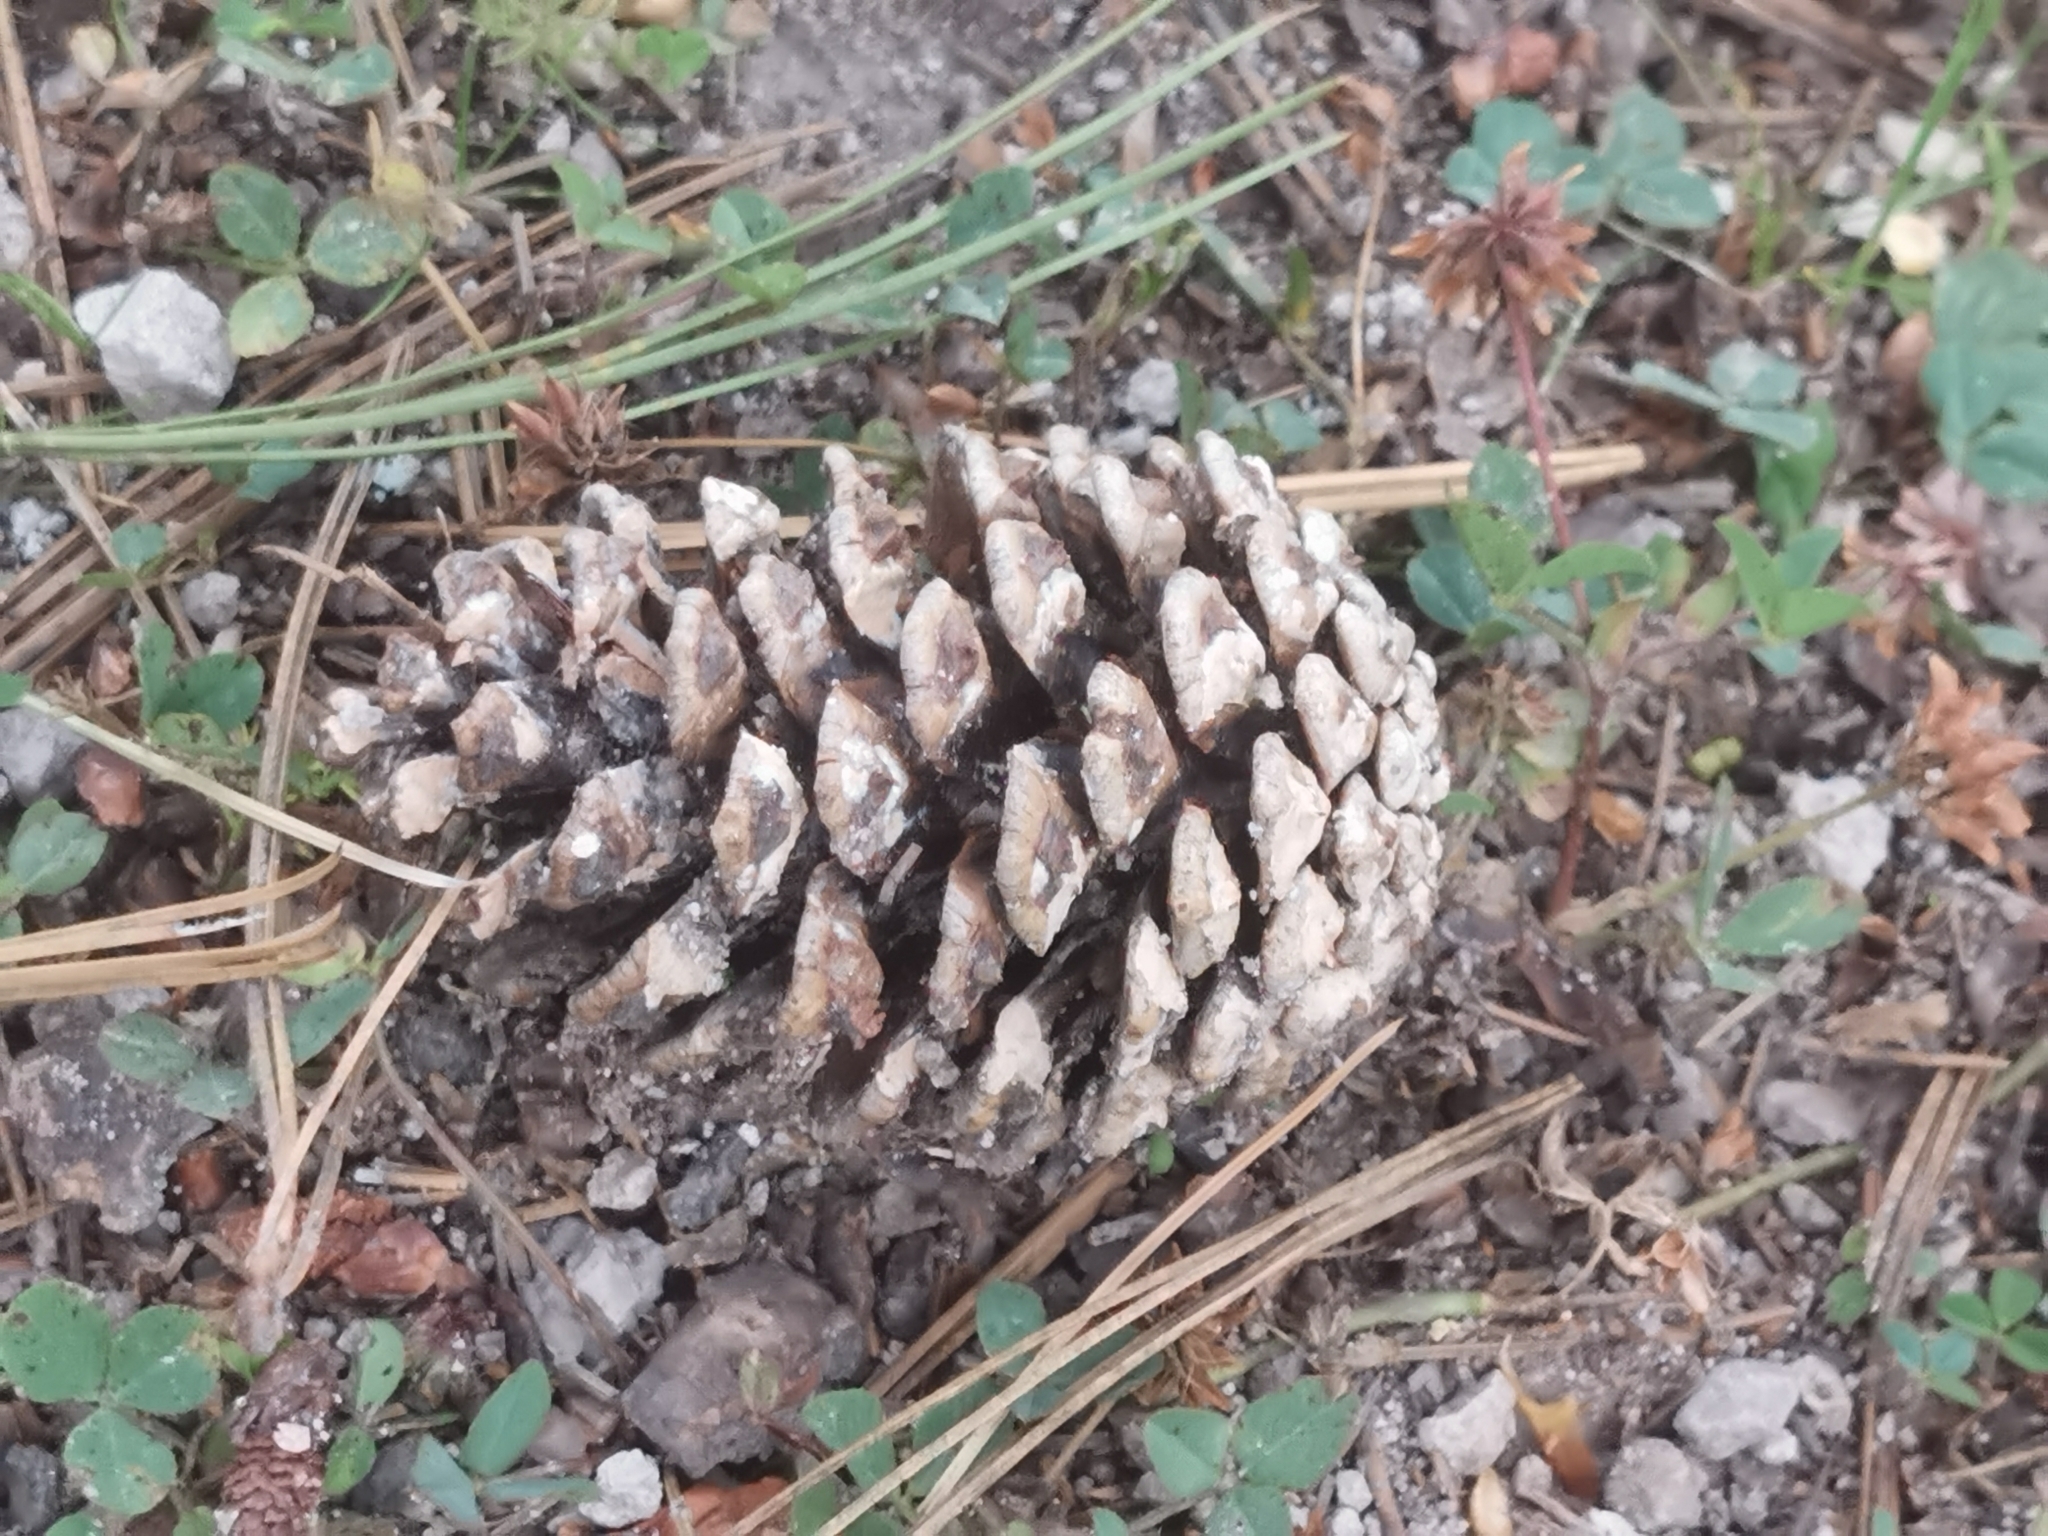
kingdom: Plantae
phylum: Tracheophyta
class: Pinopsida
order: Pinales
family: Pinaceae
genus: Pinus
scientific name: Pinus arizonica
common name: Arizona pine
